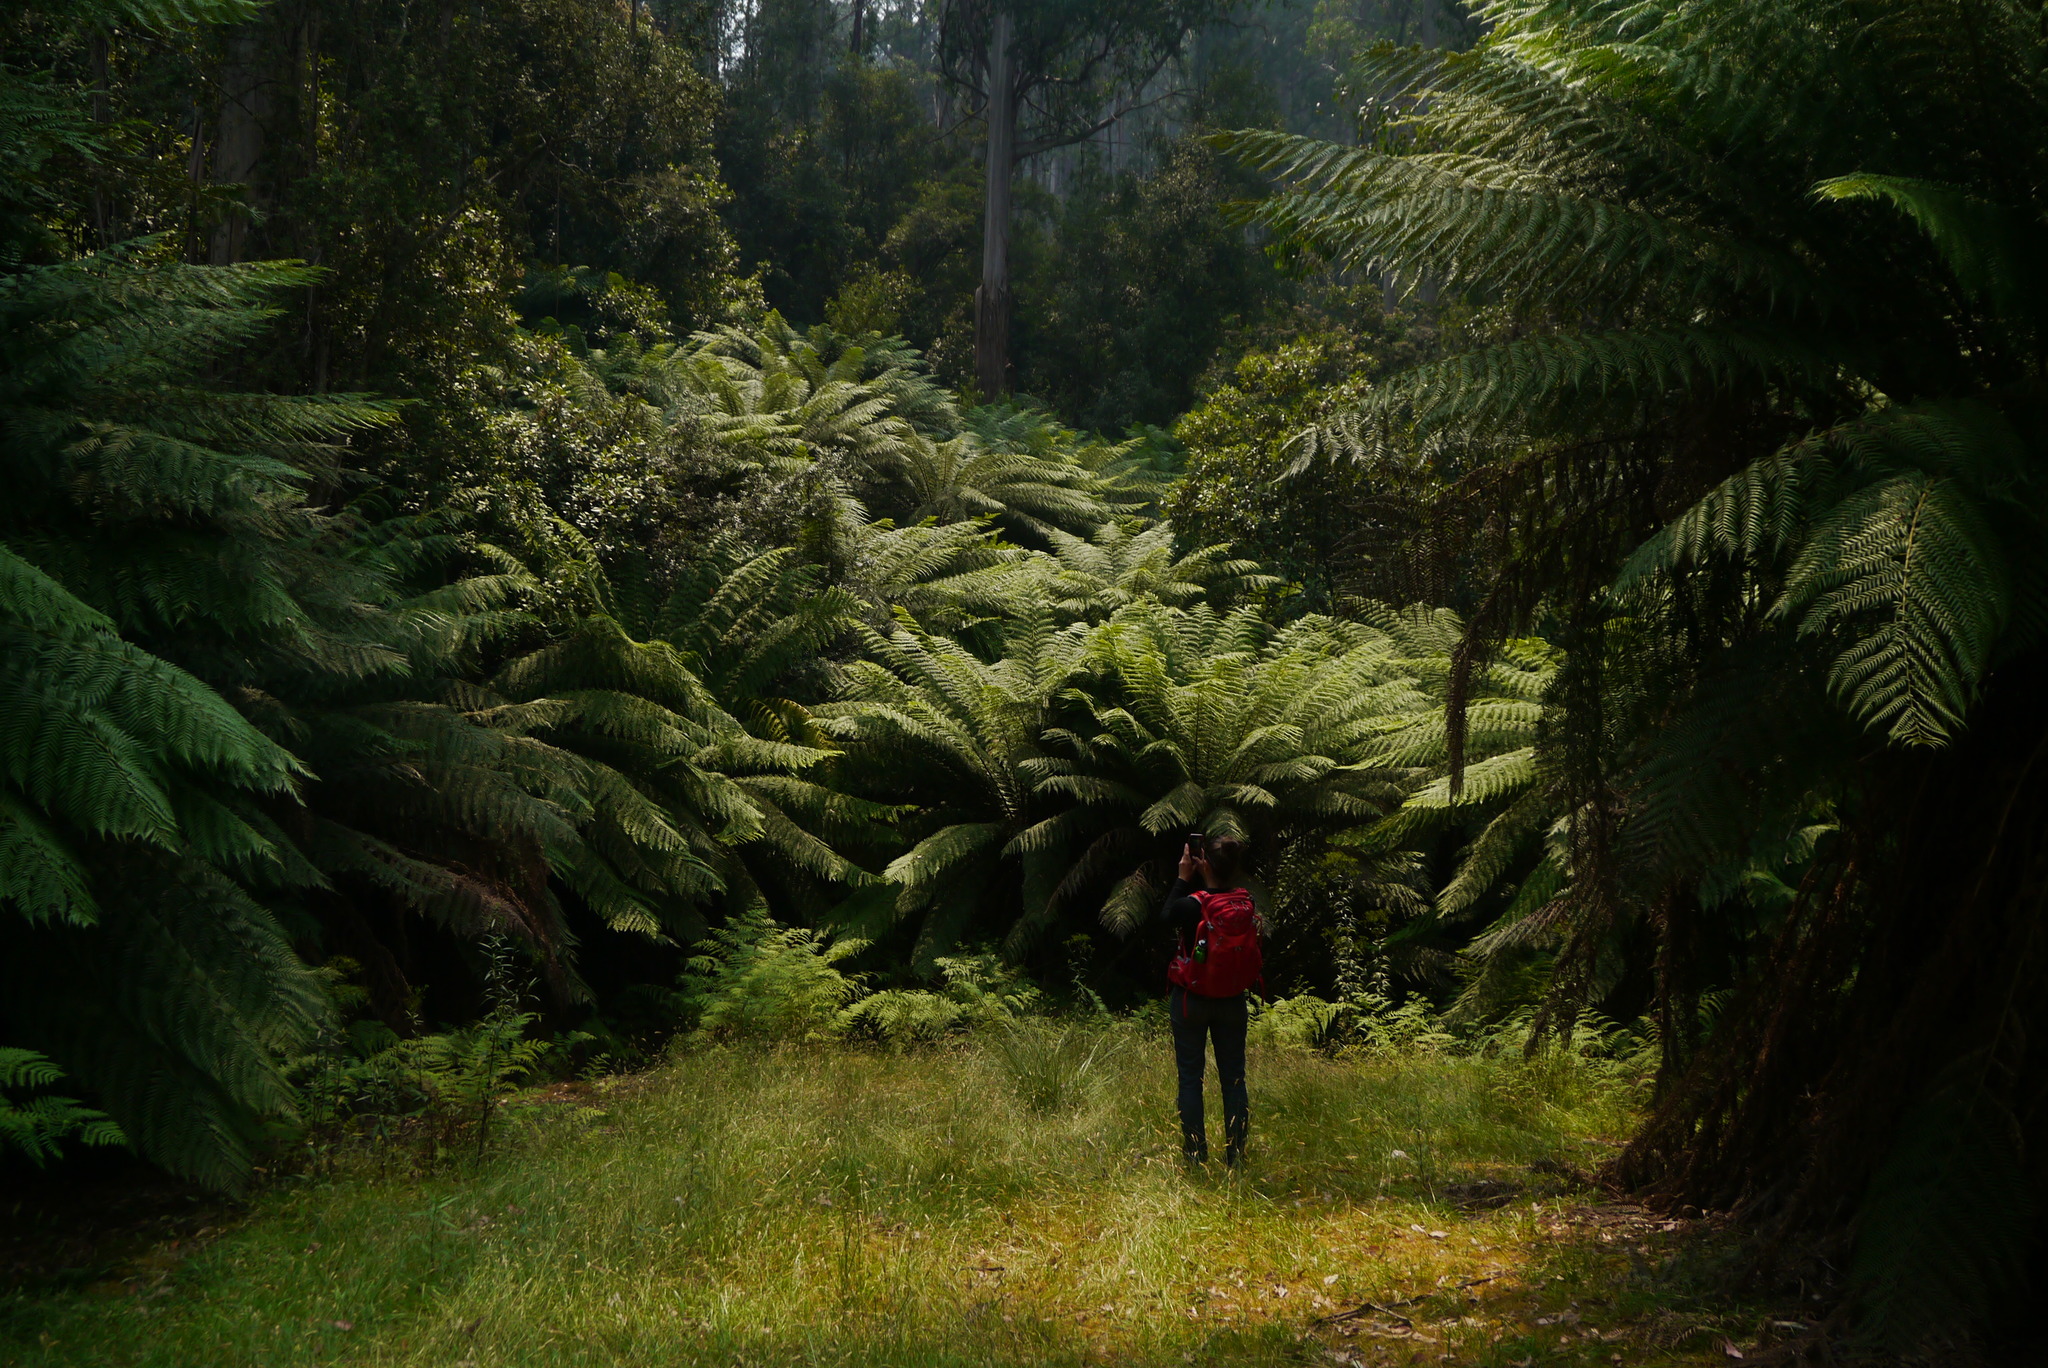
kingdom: Plantae
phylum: Tracheophyta
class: Polypodiopsida
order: Cyatheales
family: Dicksoniaceae
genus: Dicksonia
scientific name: Dicksonia antarctica
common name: Australian treefern
